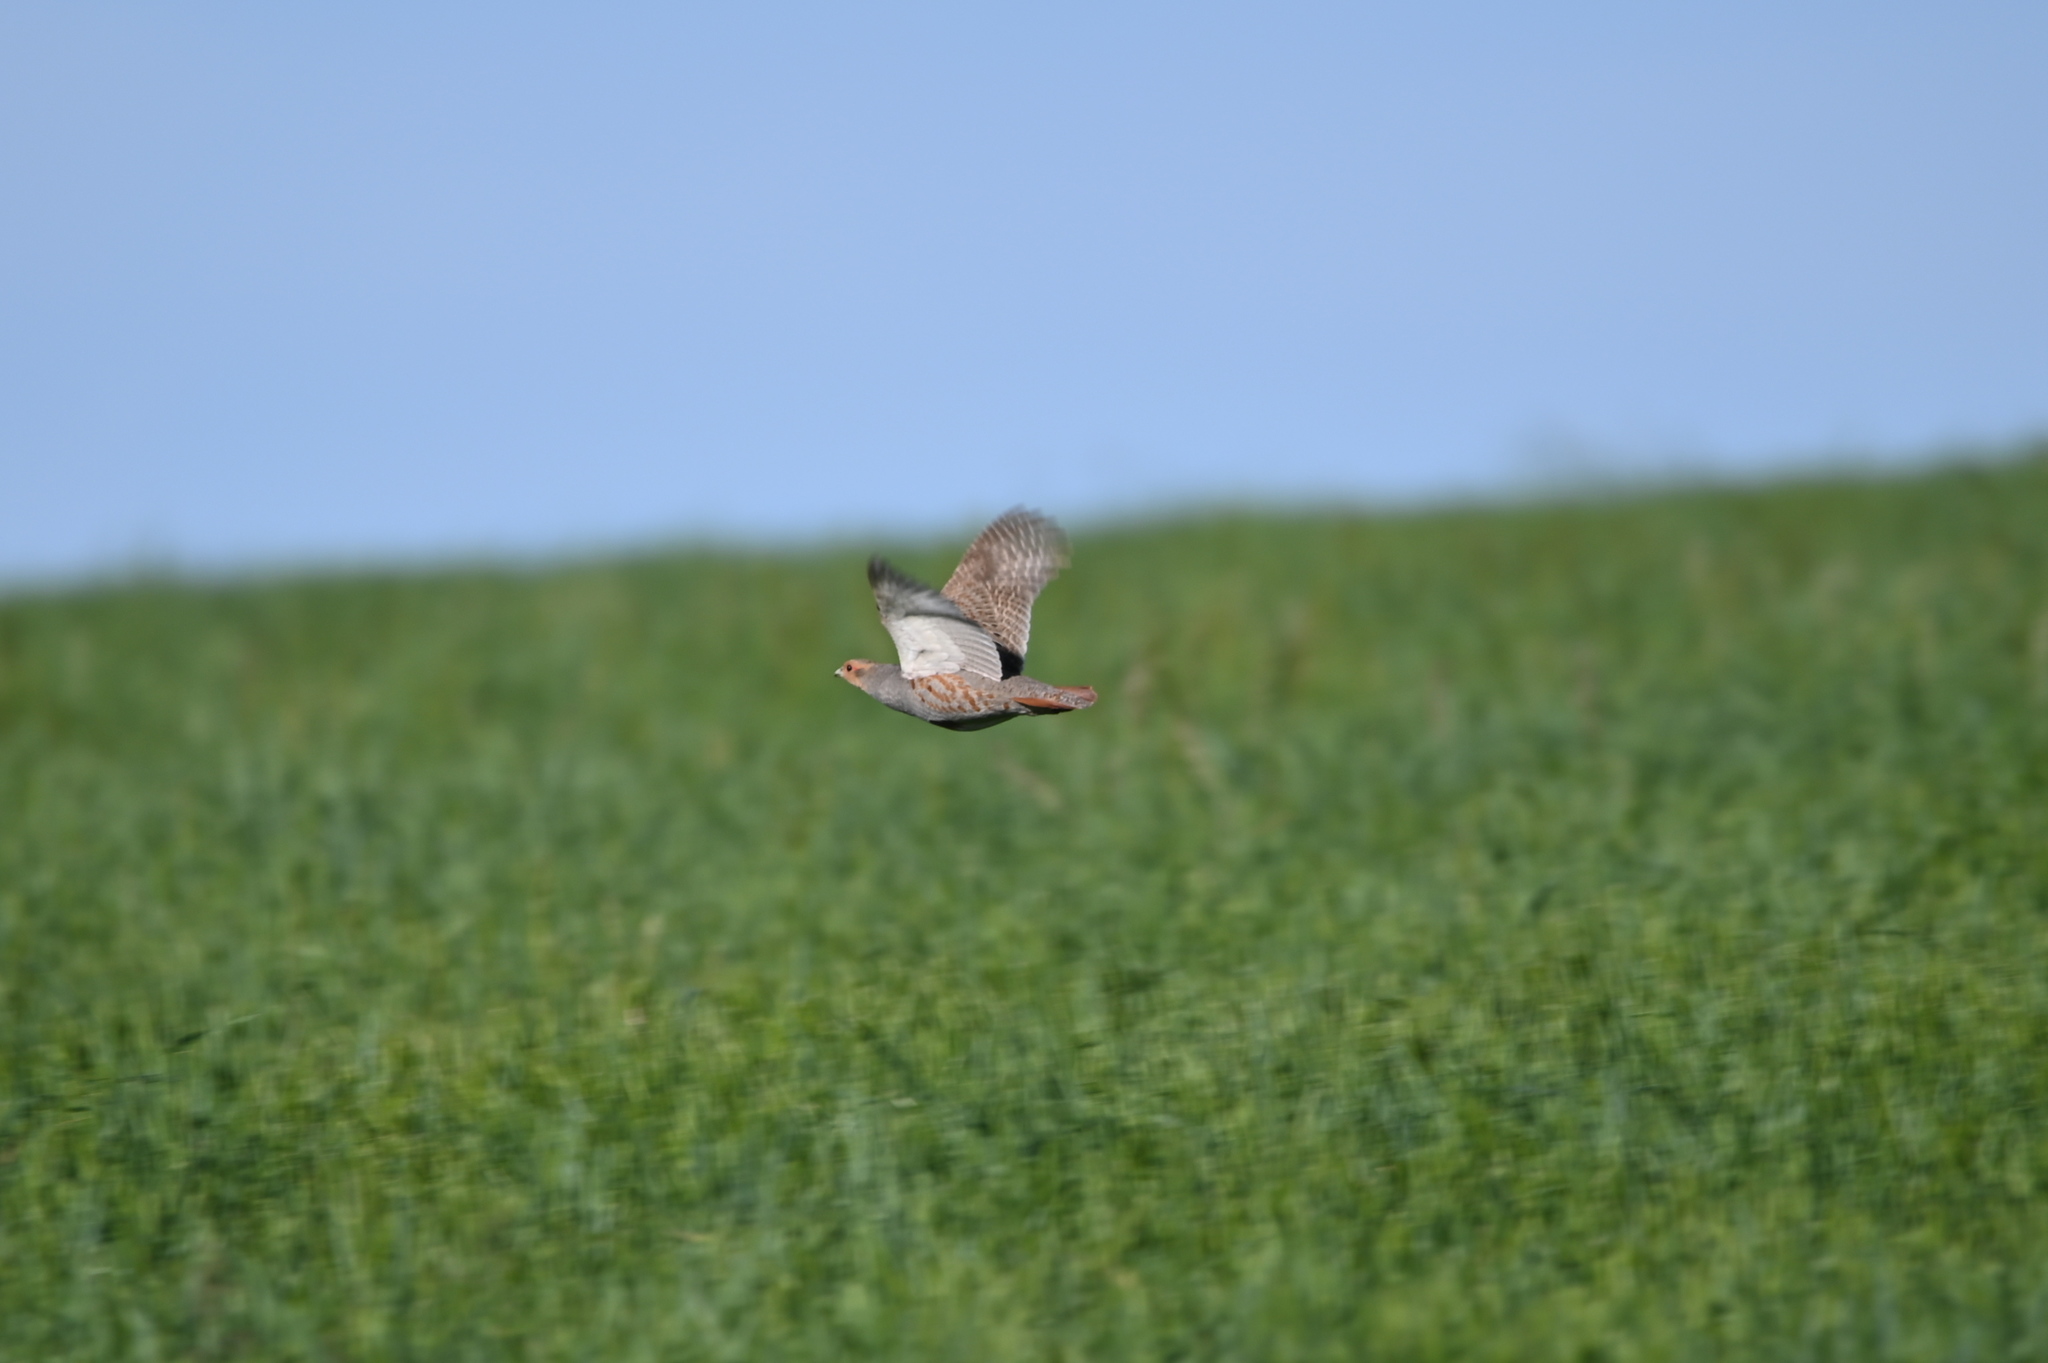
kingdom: Animalia
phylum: Chordata
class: Aves
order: Galliformes
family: Phasianidae
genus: Perdix
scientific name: Perdix perdix
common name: Grey partridge
